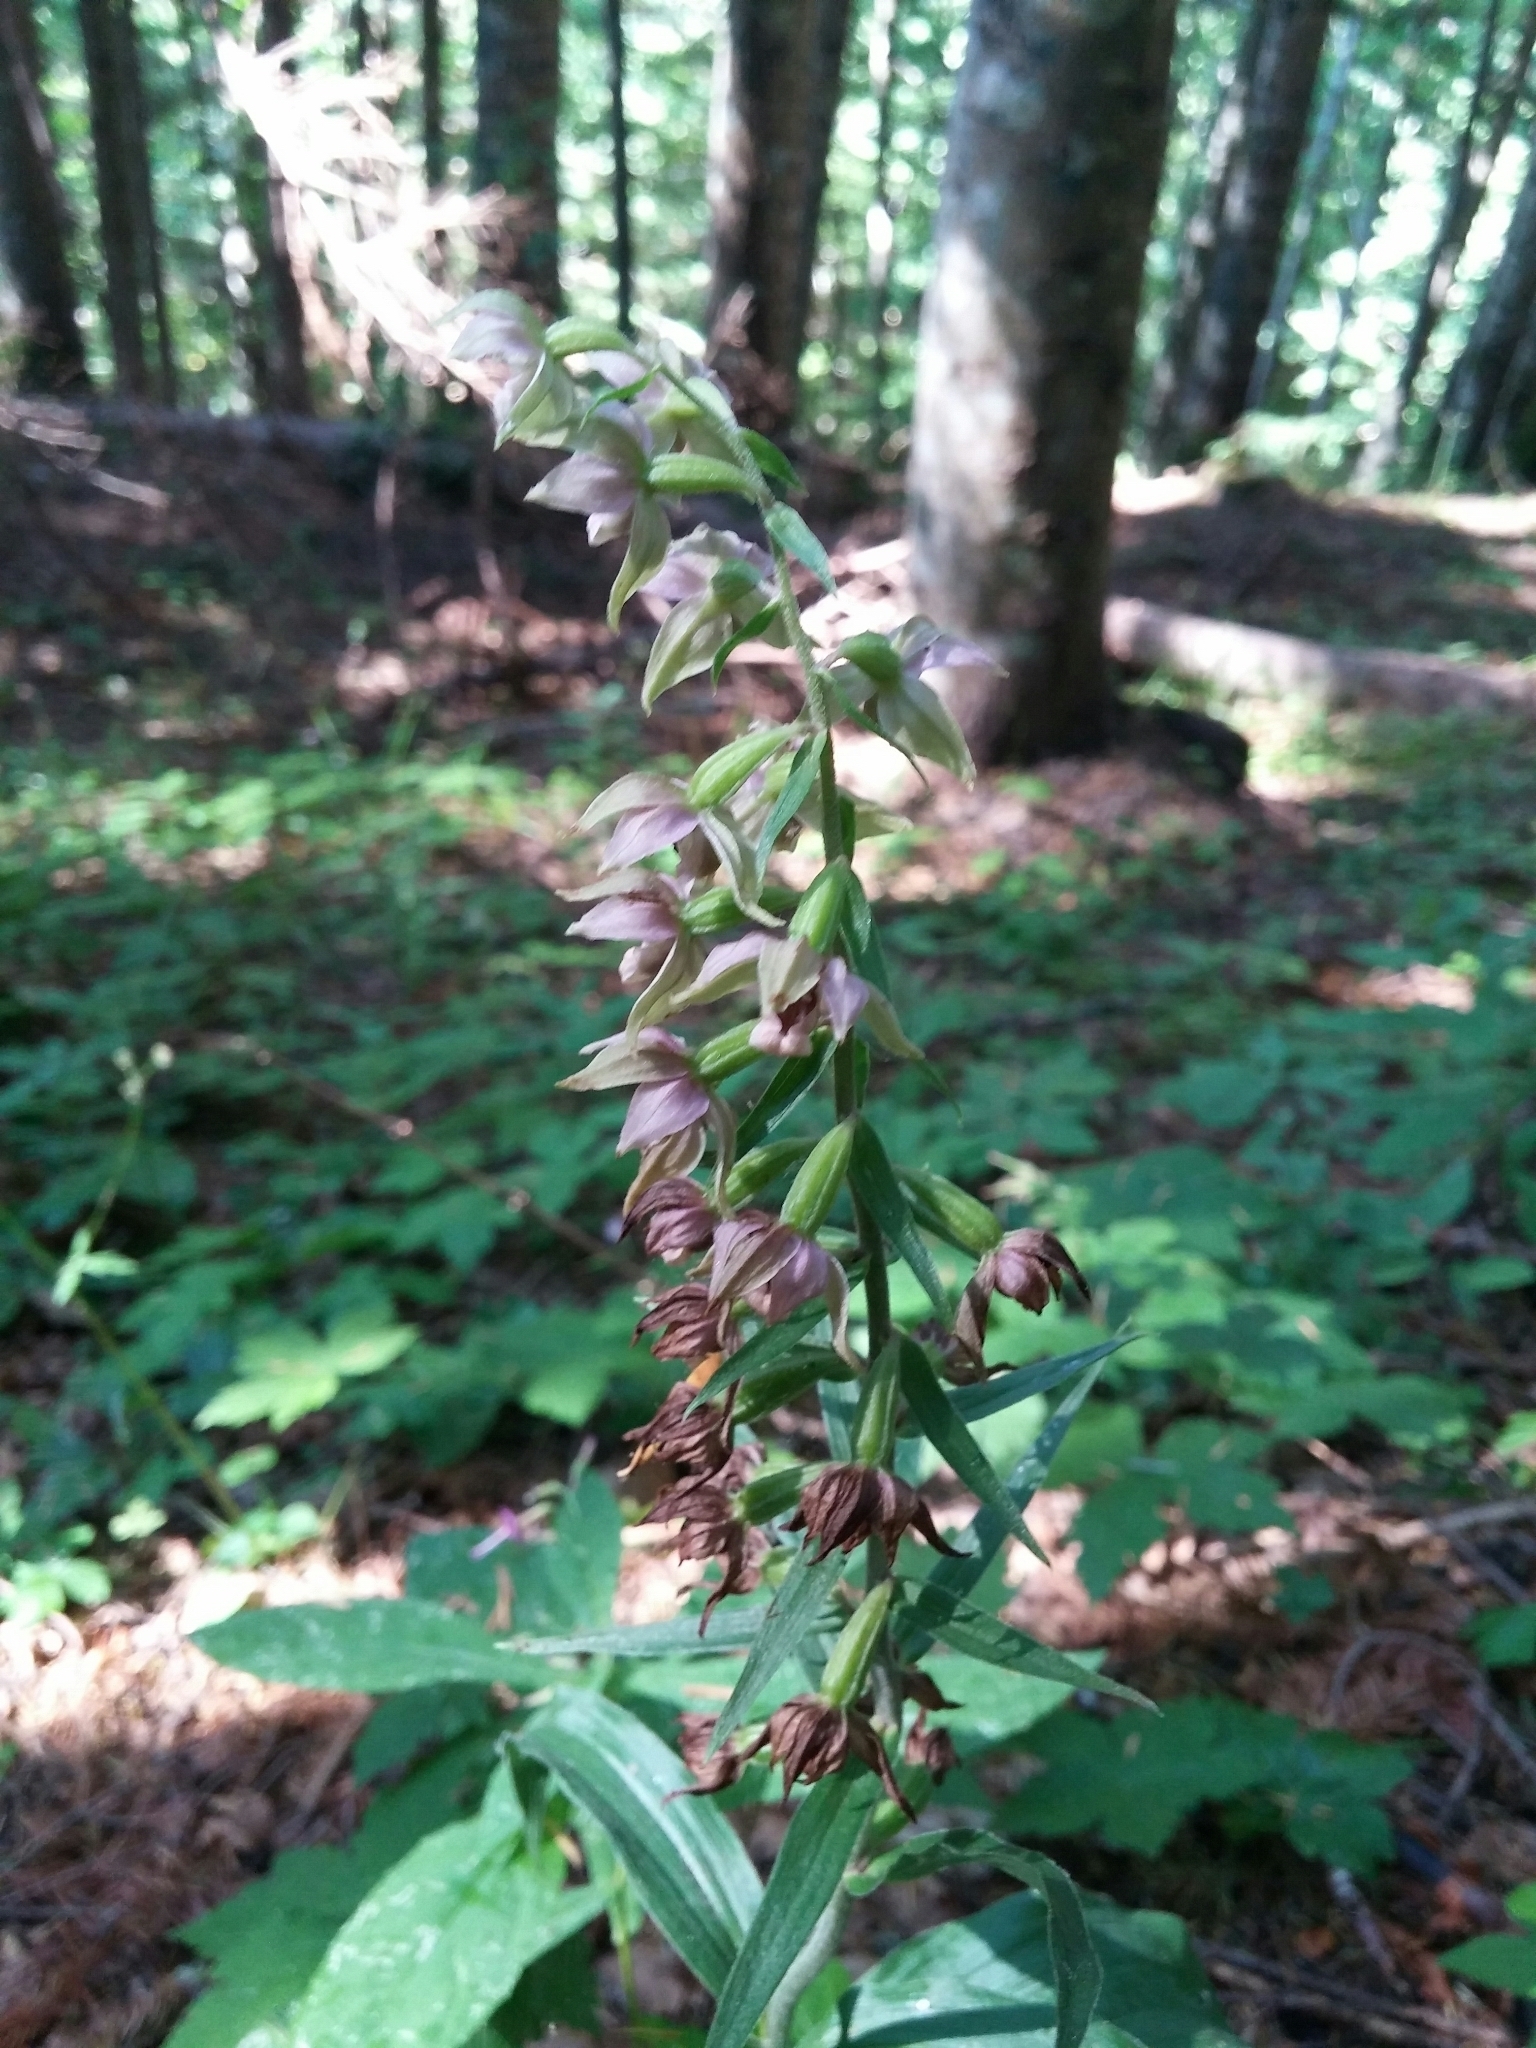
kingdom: Plantae
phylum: Tracheophyta
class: Liliopsida
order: Asparagales
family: Orchidaceae
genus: Epipactis
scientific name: Epipactis helleborine
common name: Broad-leaved helleborine
